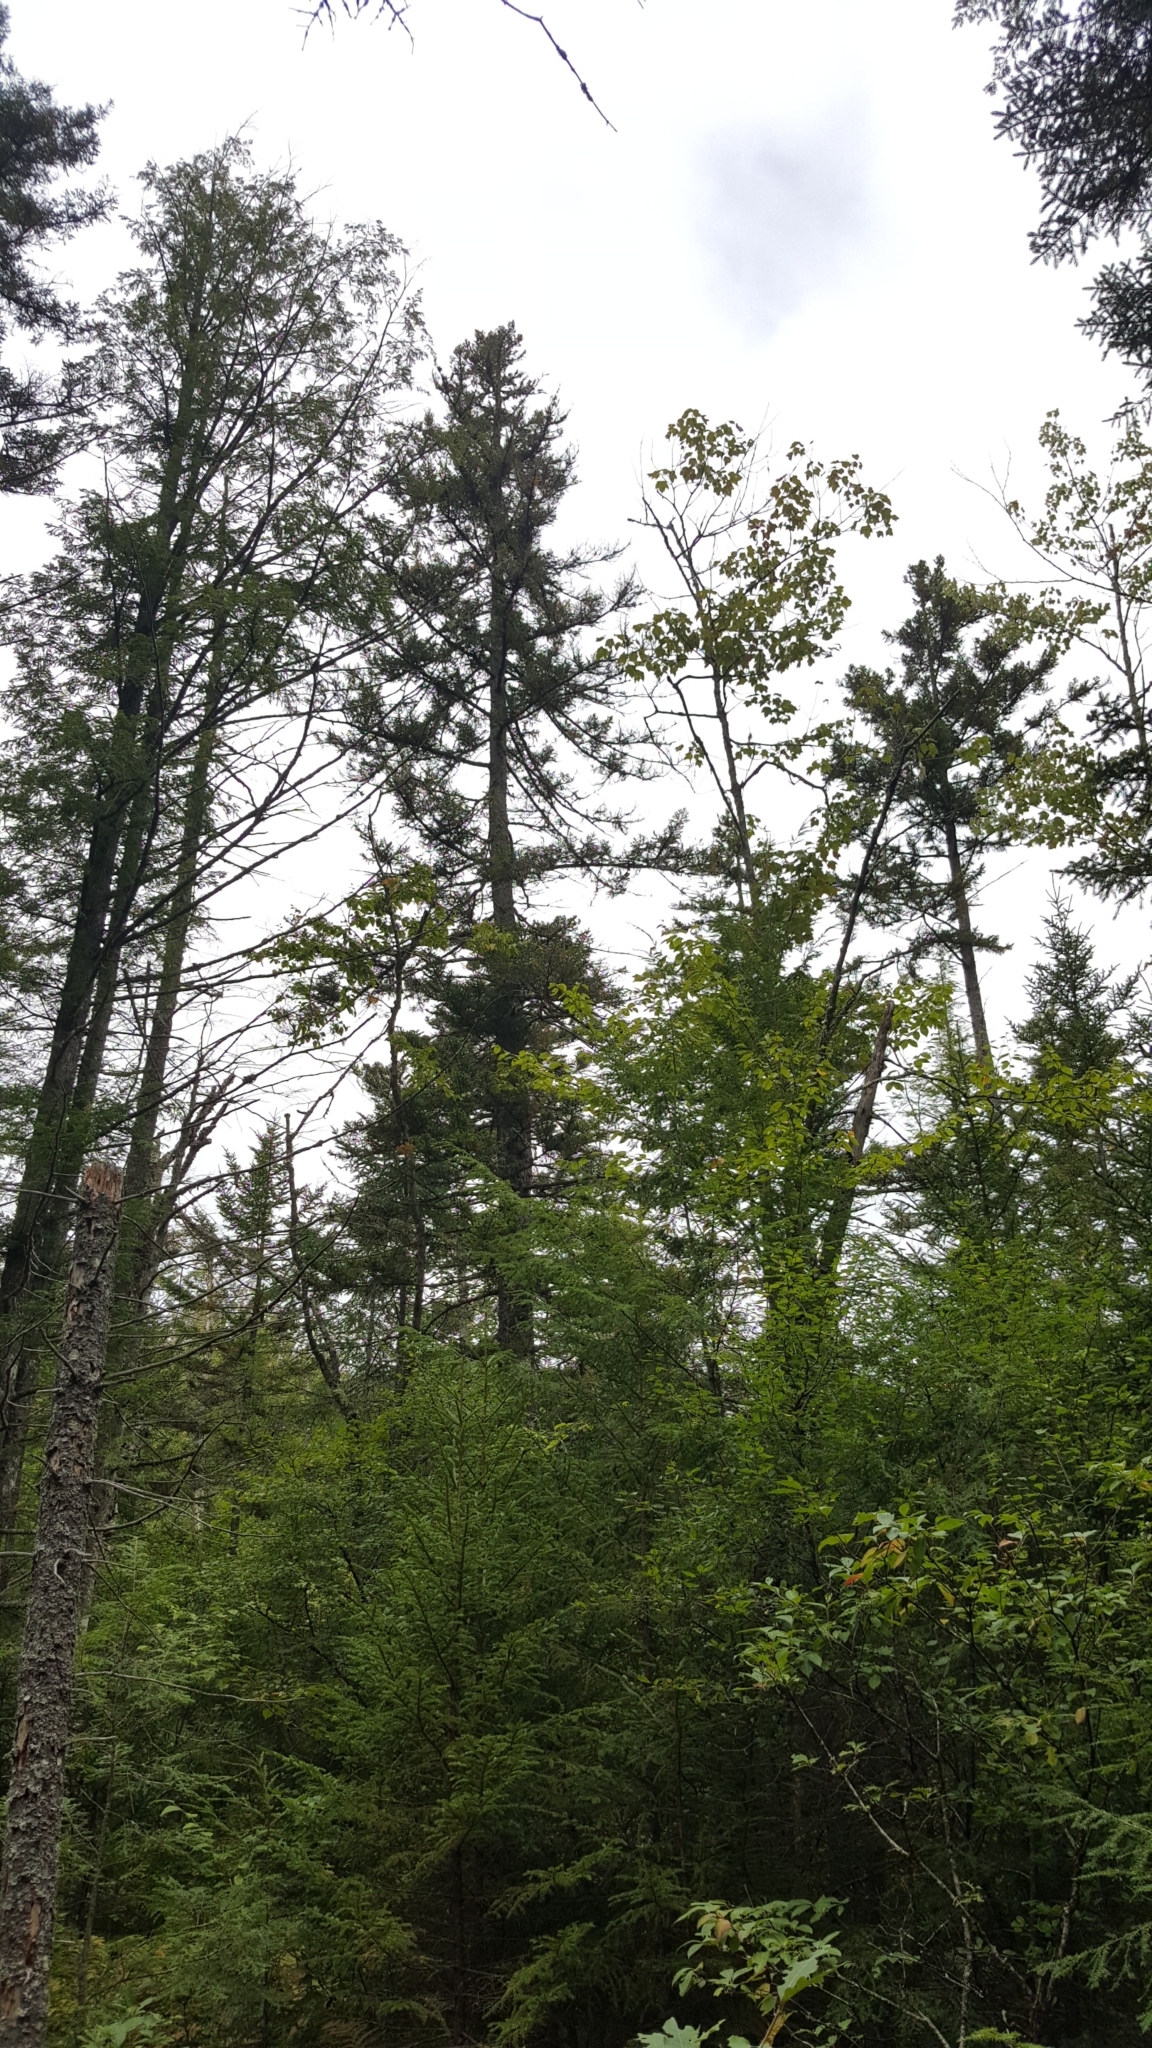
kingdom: Plantae
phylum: Tracheophyta
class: Pinopsida
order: Pinales
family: Pinaceae
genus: Picea
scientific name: Picea rubens
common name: Red spruce
